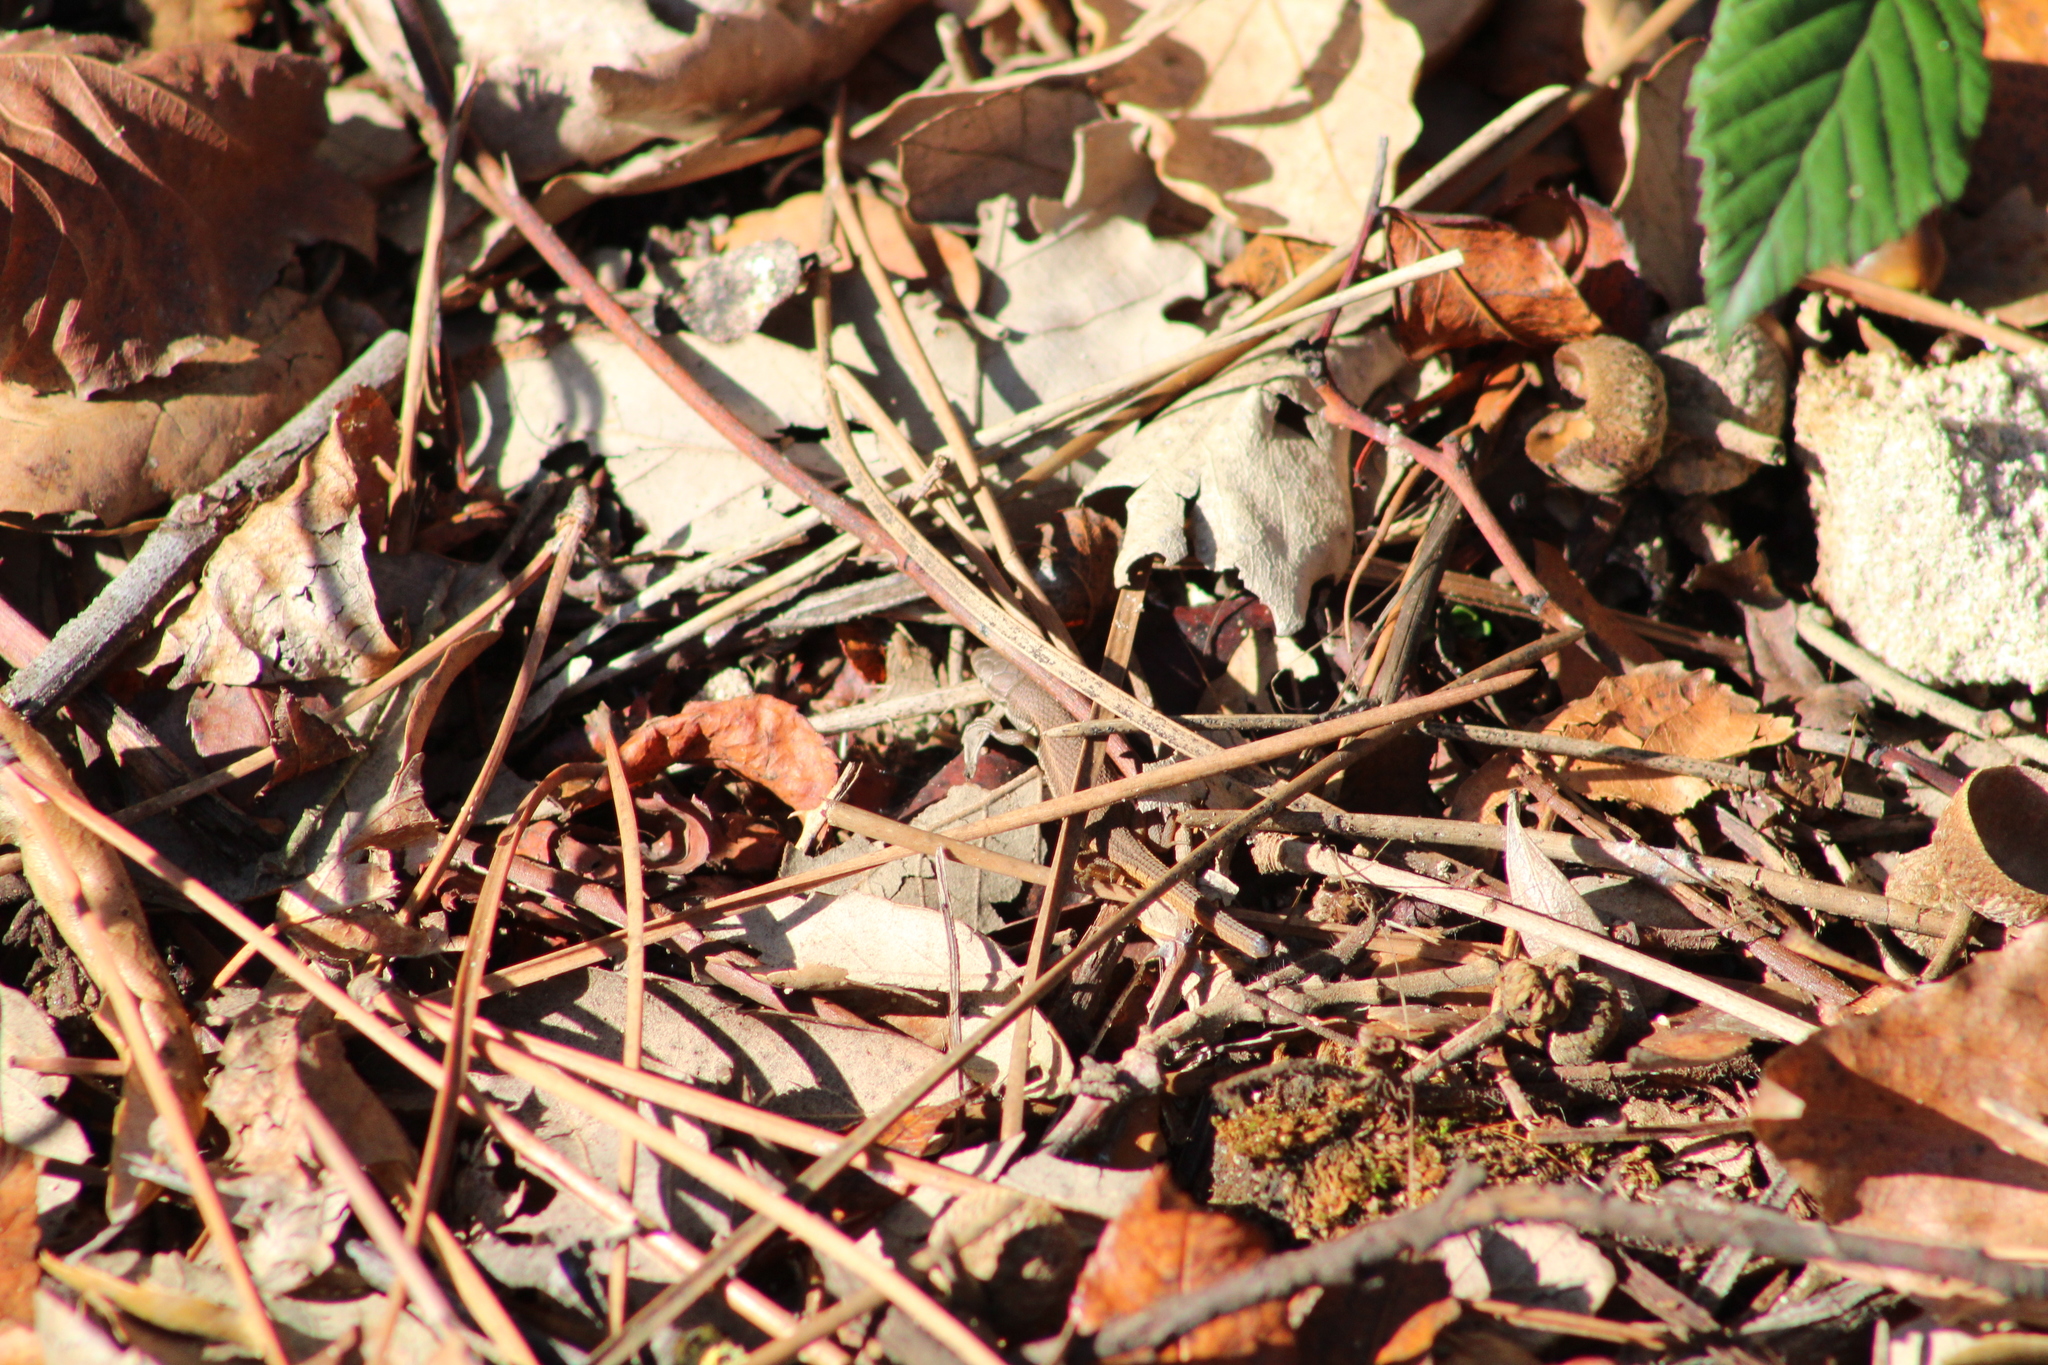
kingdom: Animalia
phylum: Chordata
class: Squamata
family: Lacertidae
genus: Psammodromus
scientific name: Psammodromus algirus
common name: Algerian psammodromus
